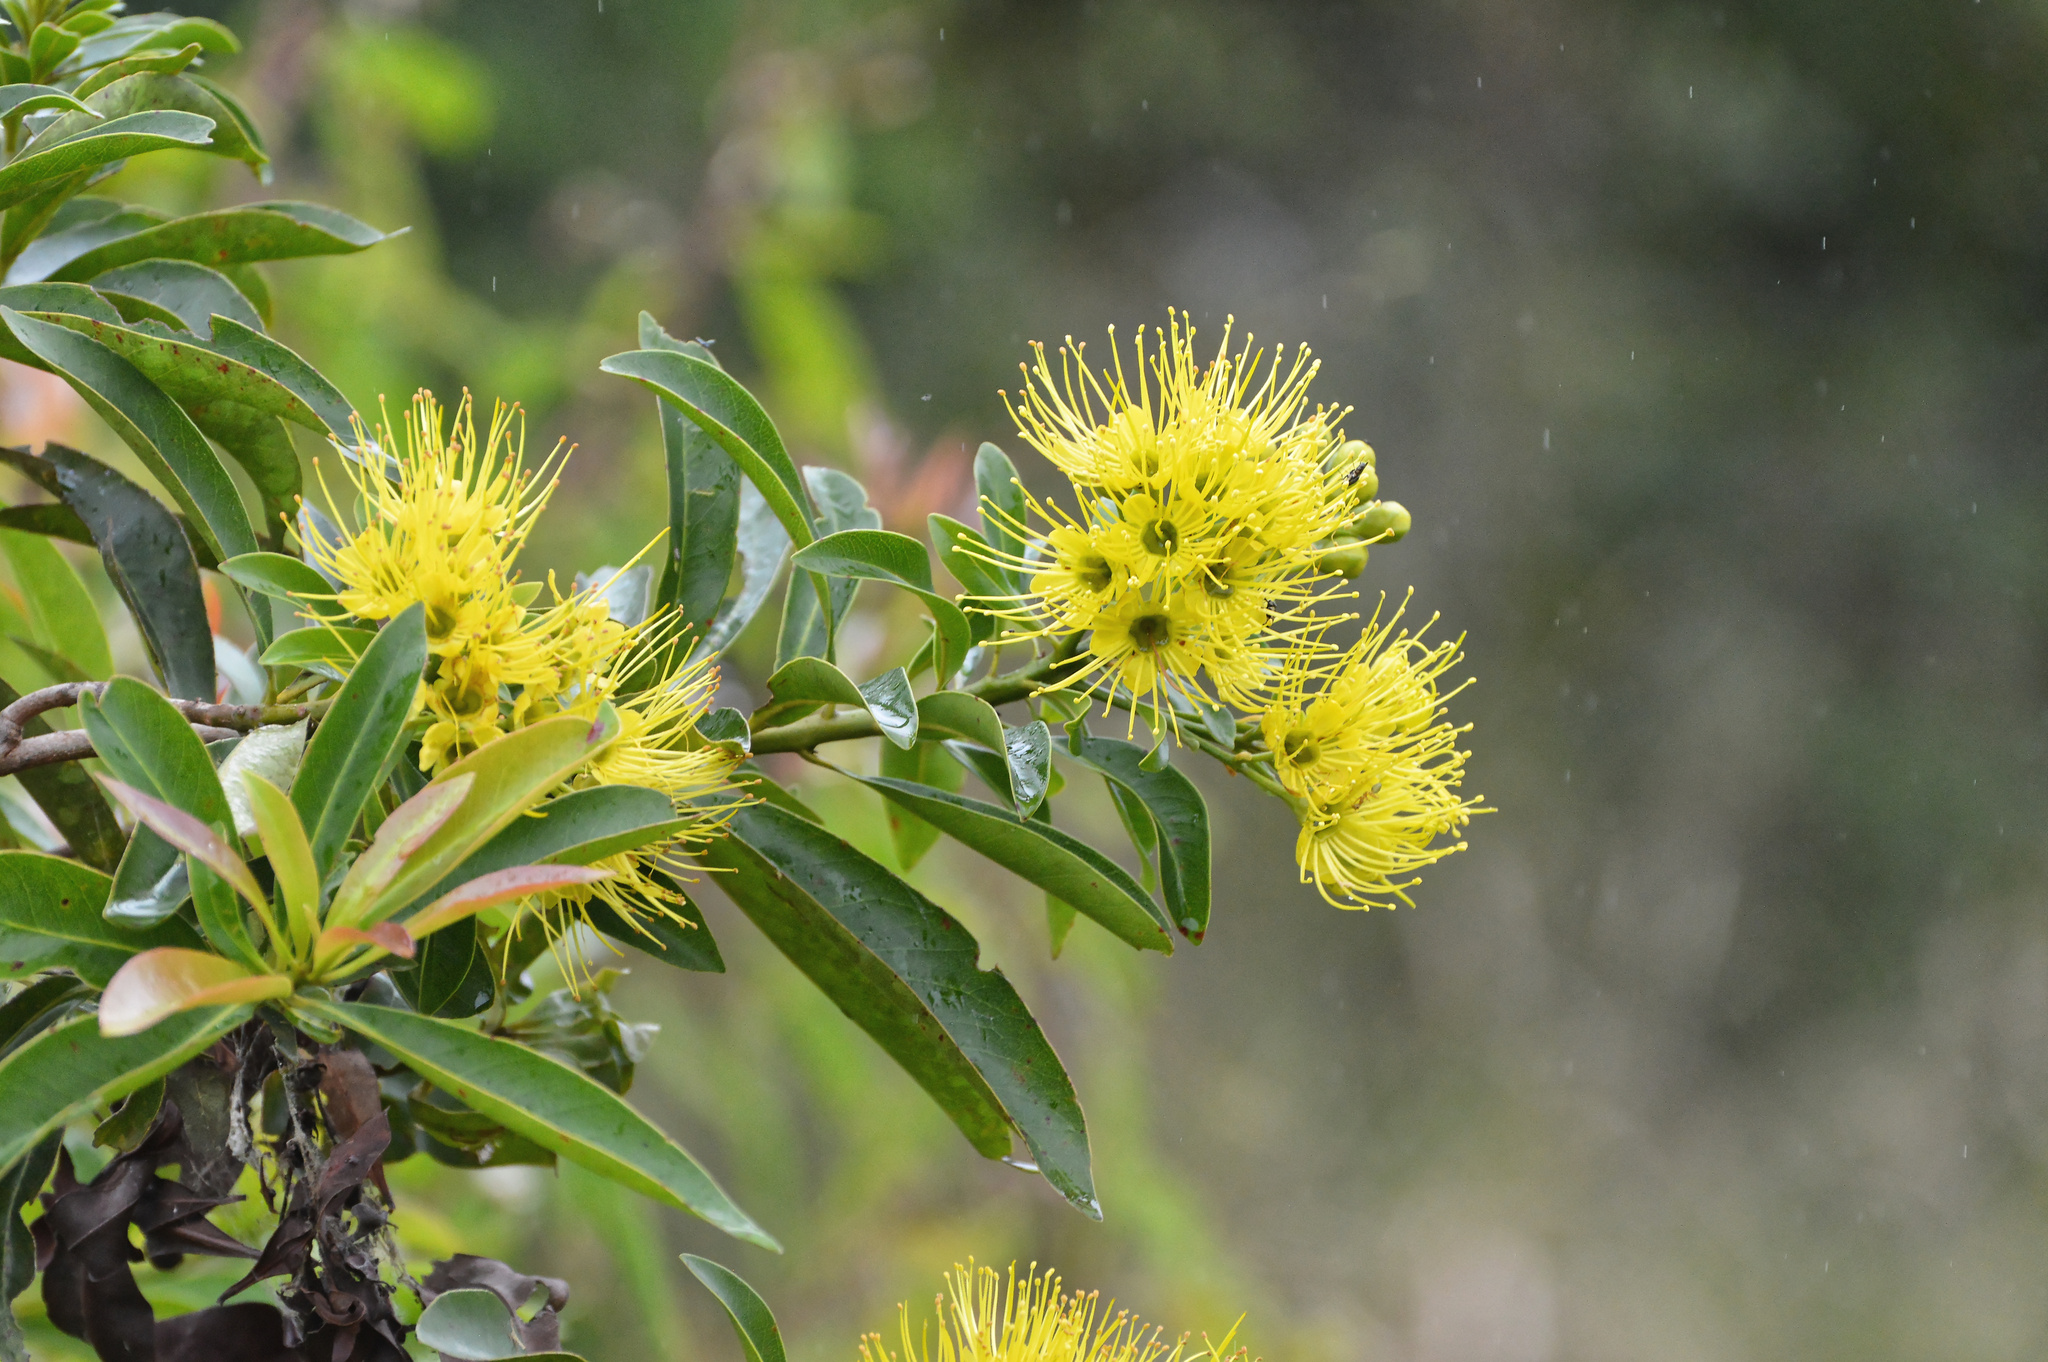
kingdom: Plantae
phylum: Tracheophyta
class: Magnoliopsida
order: Myrtales
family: Myrtaceae
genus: Xanthostemon
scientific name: Xanthostemon chrysanthus
